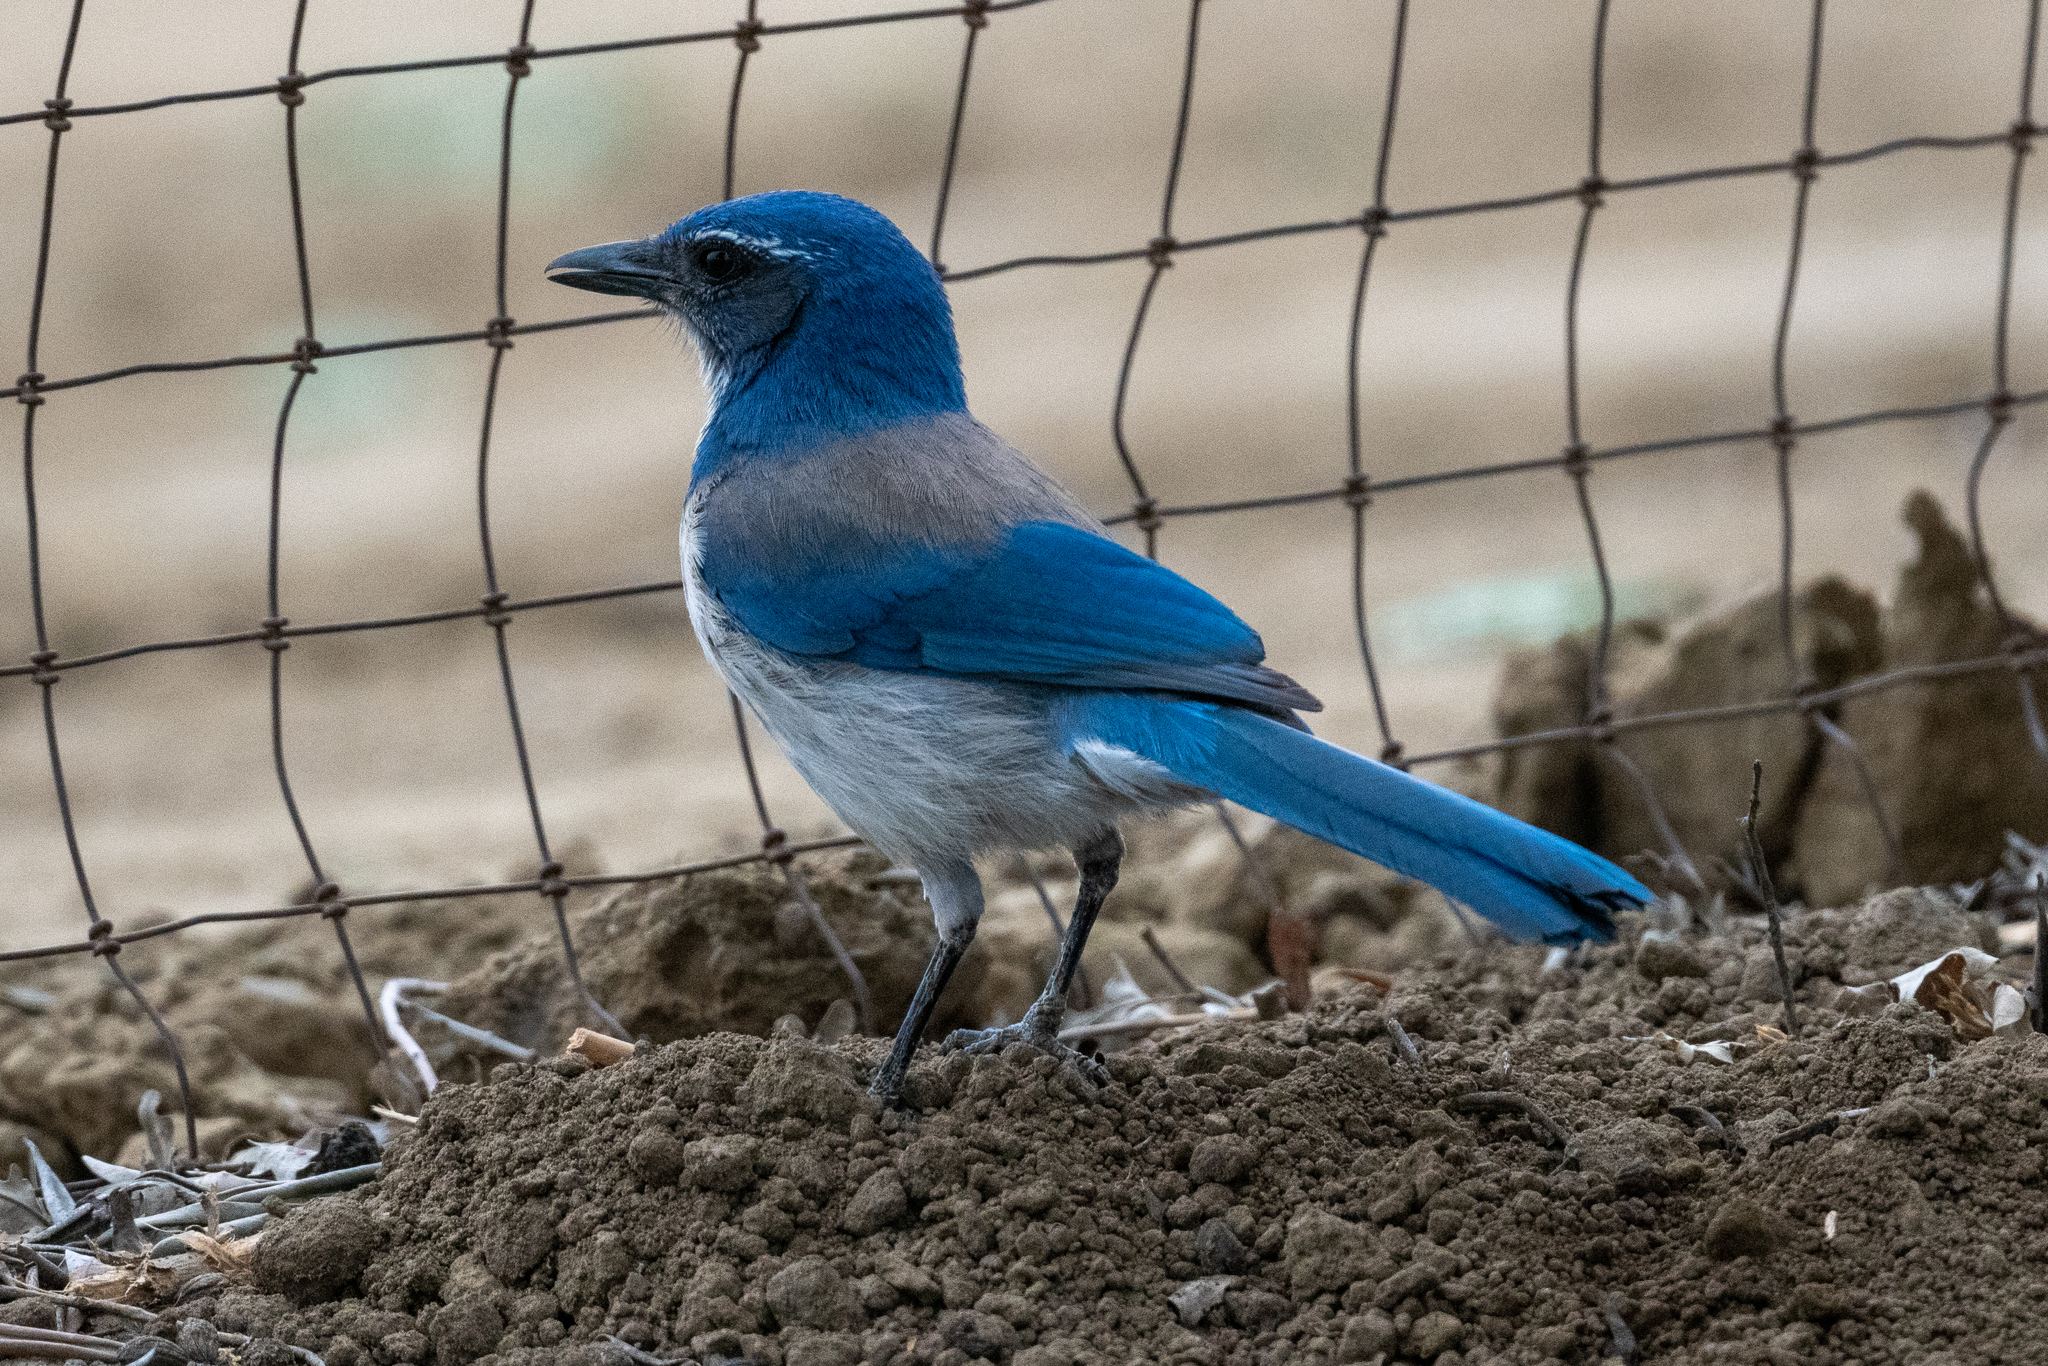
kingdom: Animalia
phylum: Chordata
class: Aves
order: Passeriformes
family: Corvidae
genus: Aphelocoma
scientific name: Aphelocoma californica
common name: California scrub-jay
